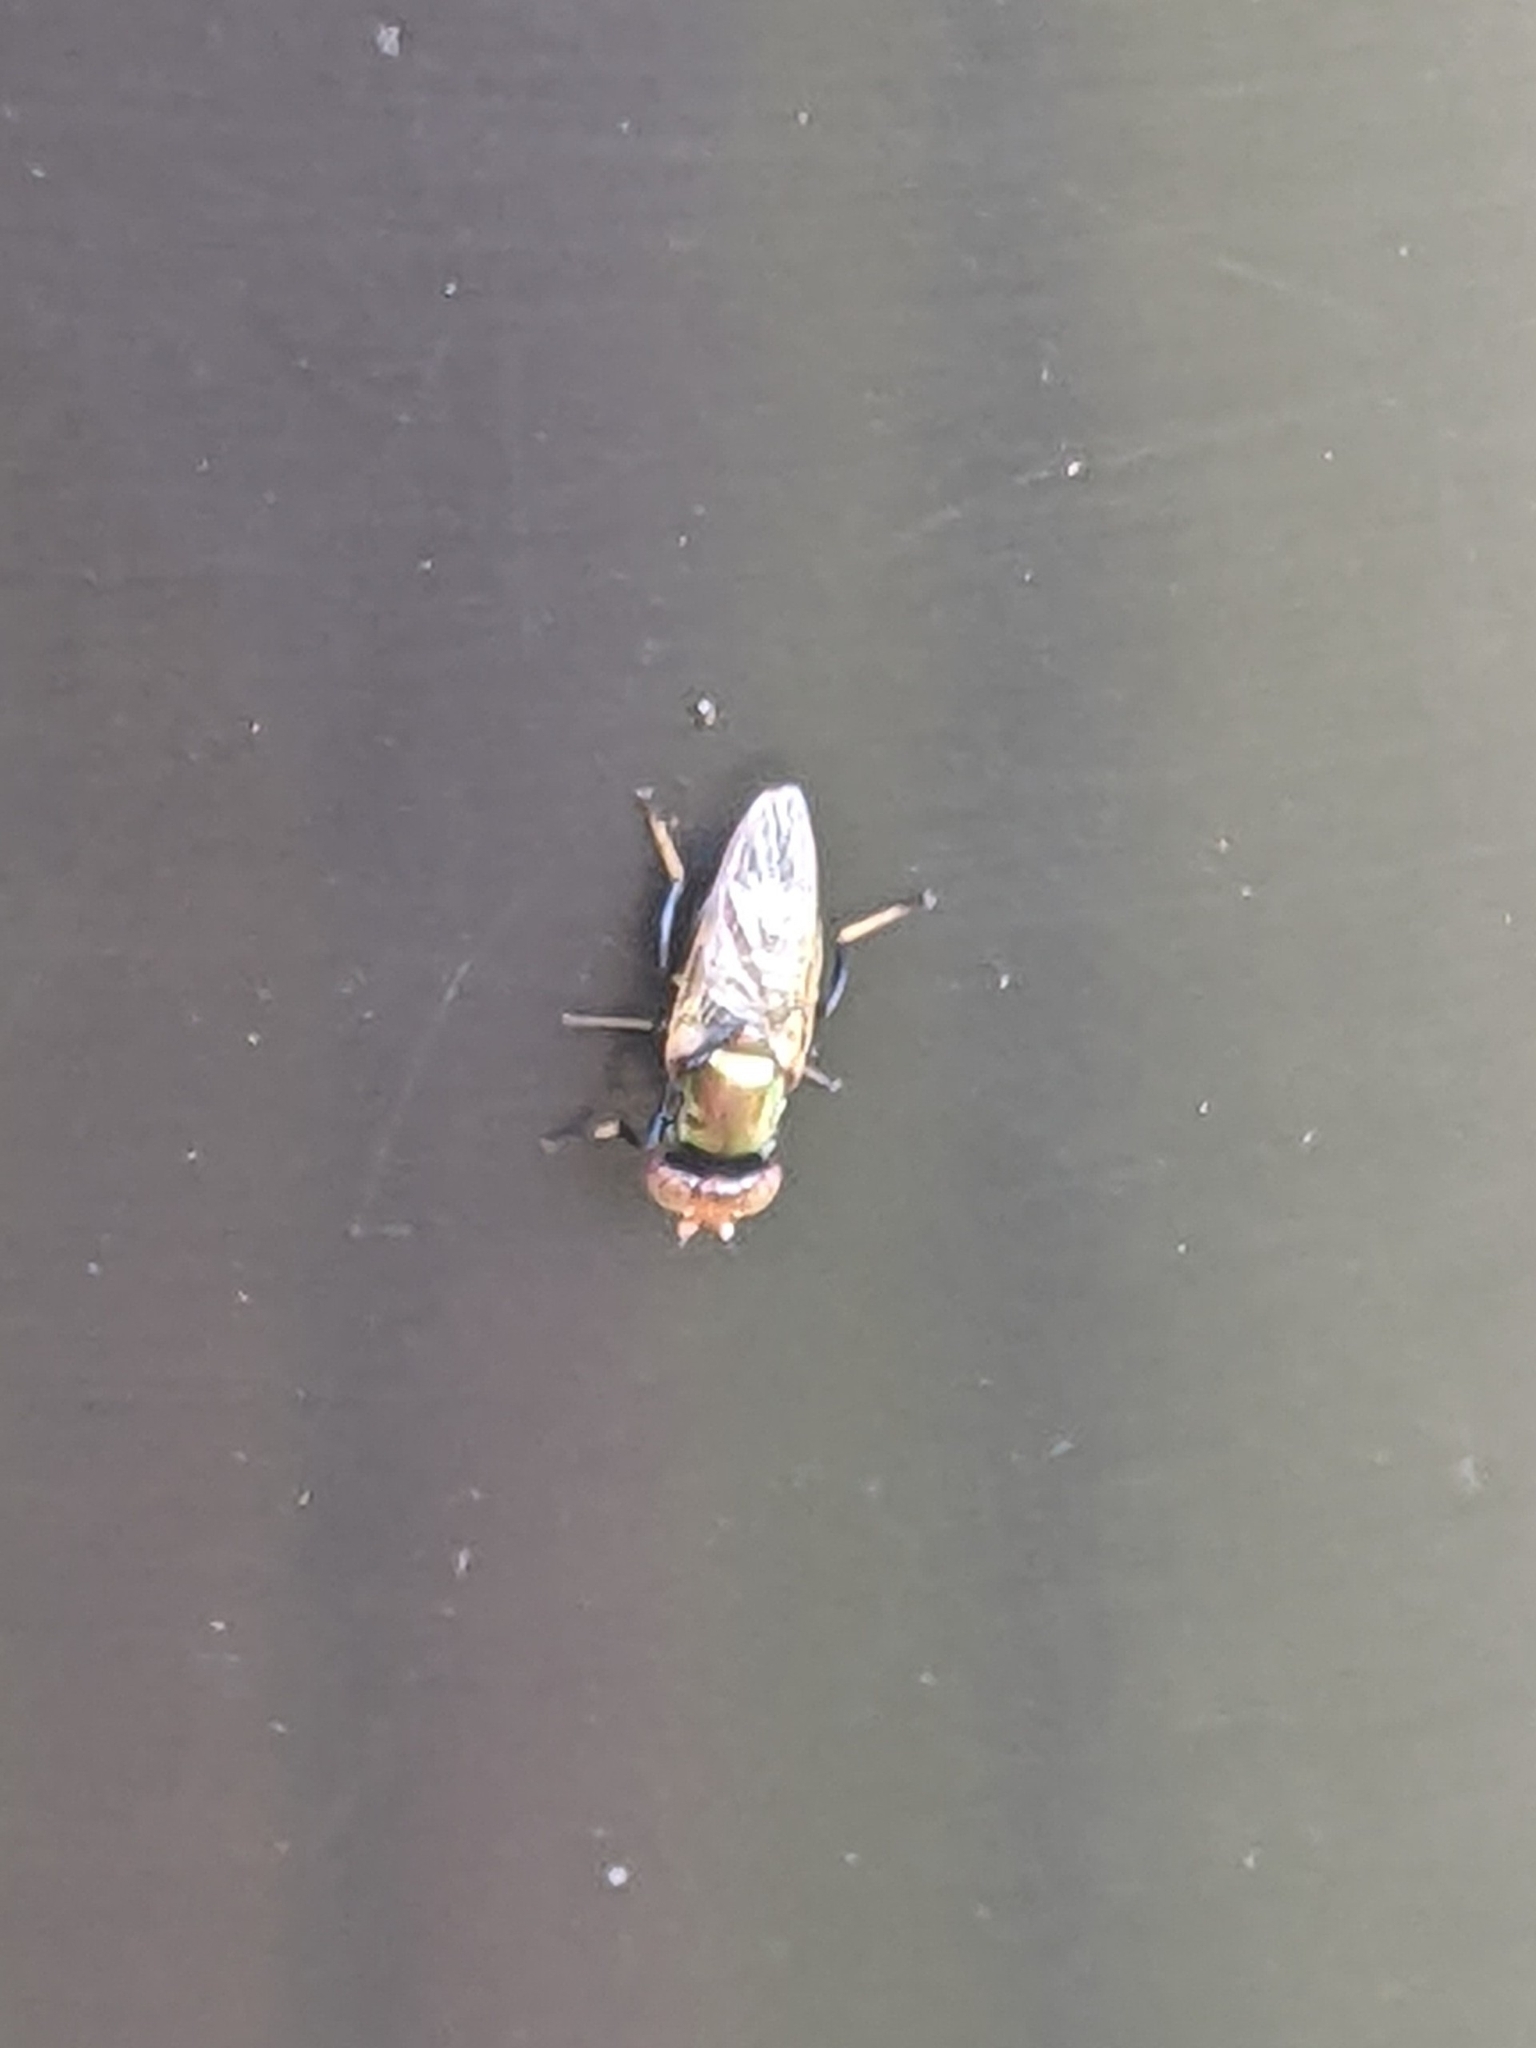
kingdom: Animalia
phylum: Arthropoda
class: Insecta
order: Diptera
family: Ulidiidae
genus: Physiphora
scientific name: Physiphora alceae
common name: Picture-winged fly
